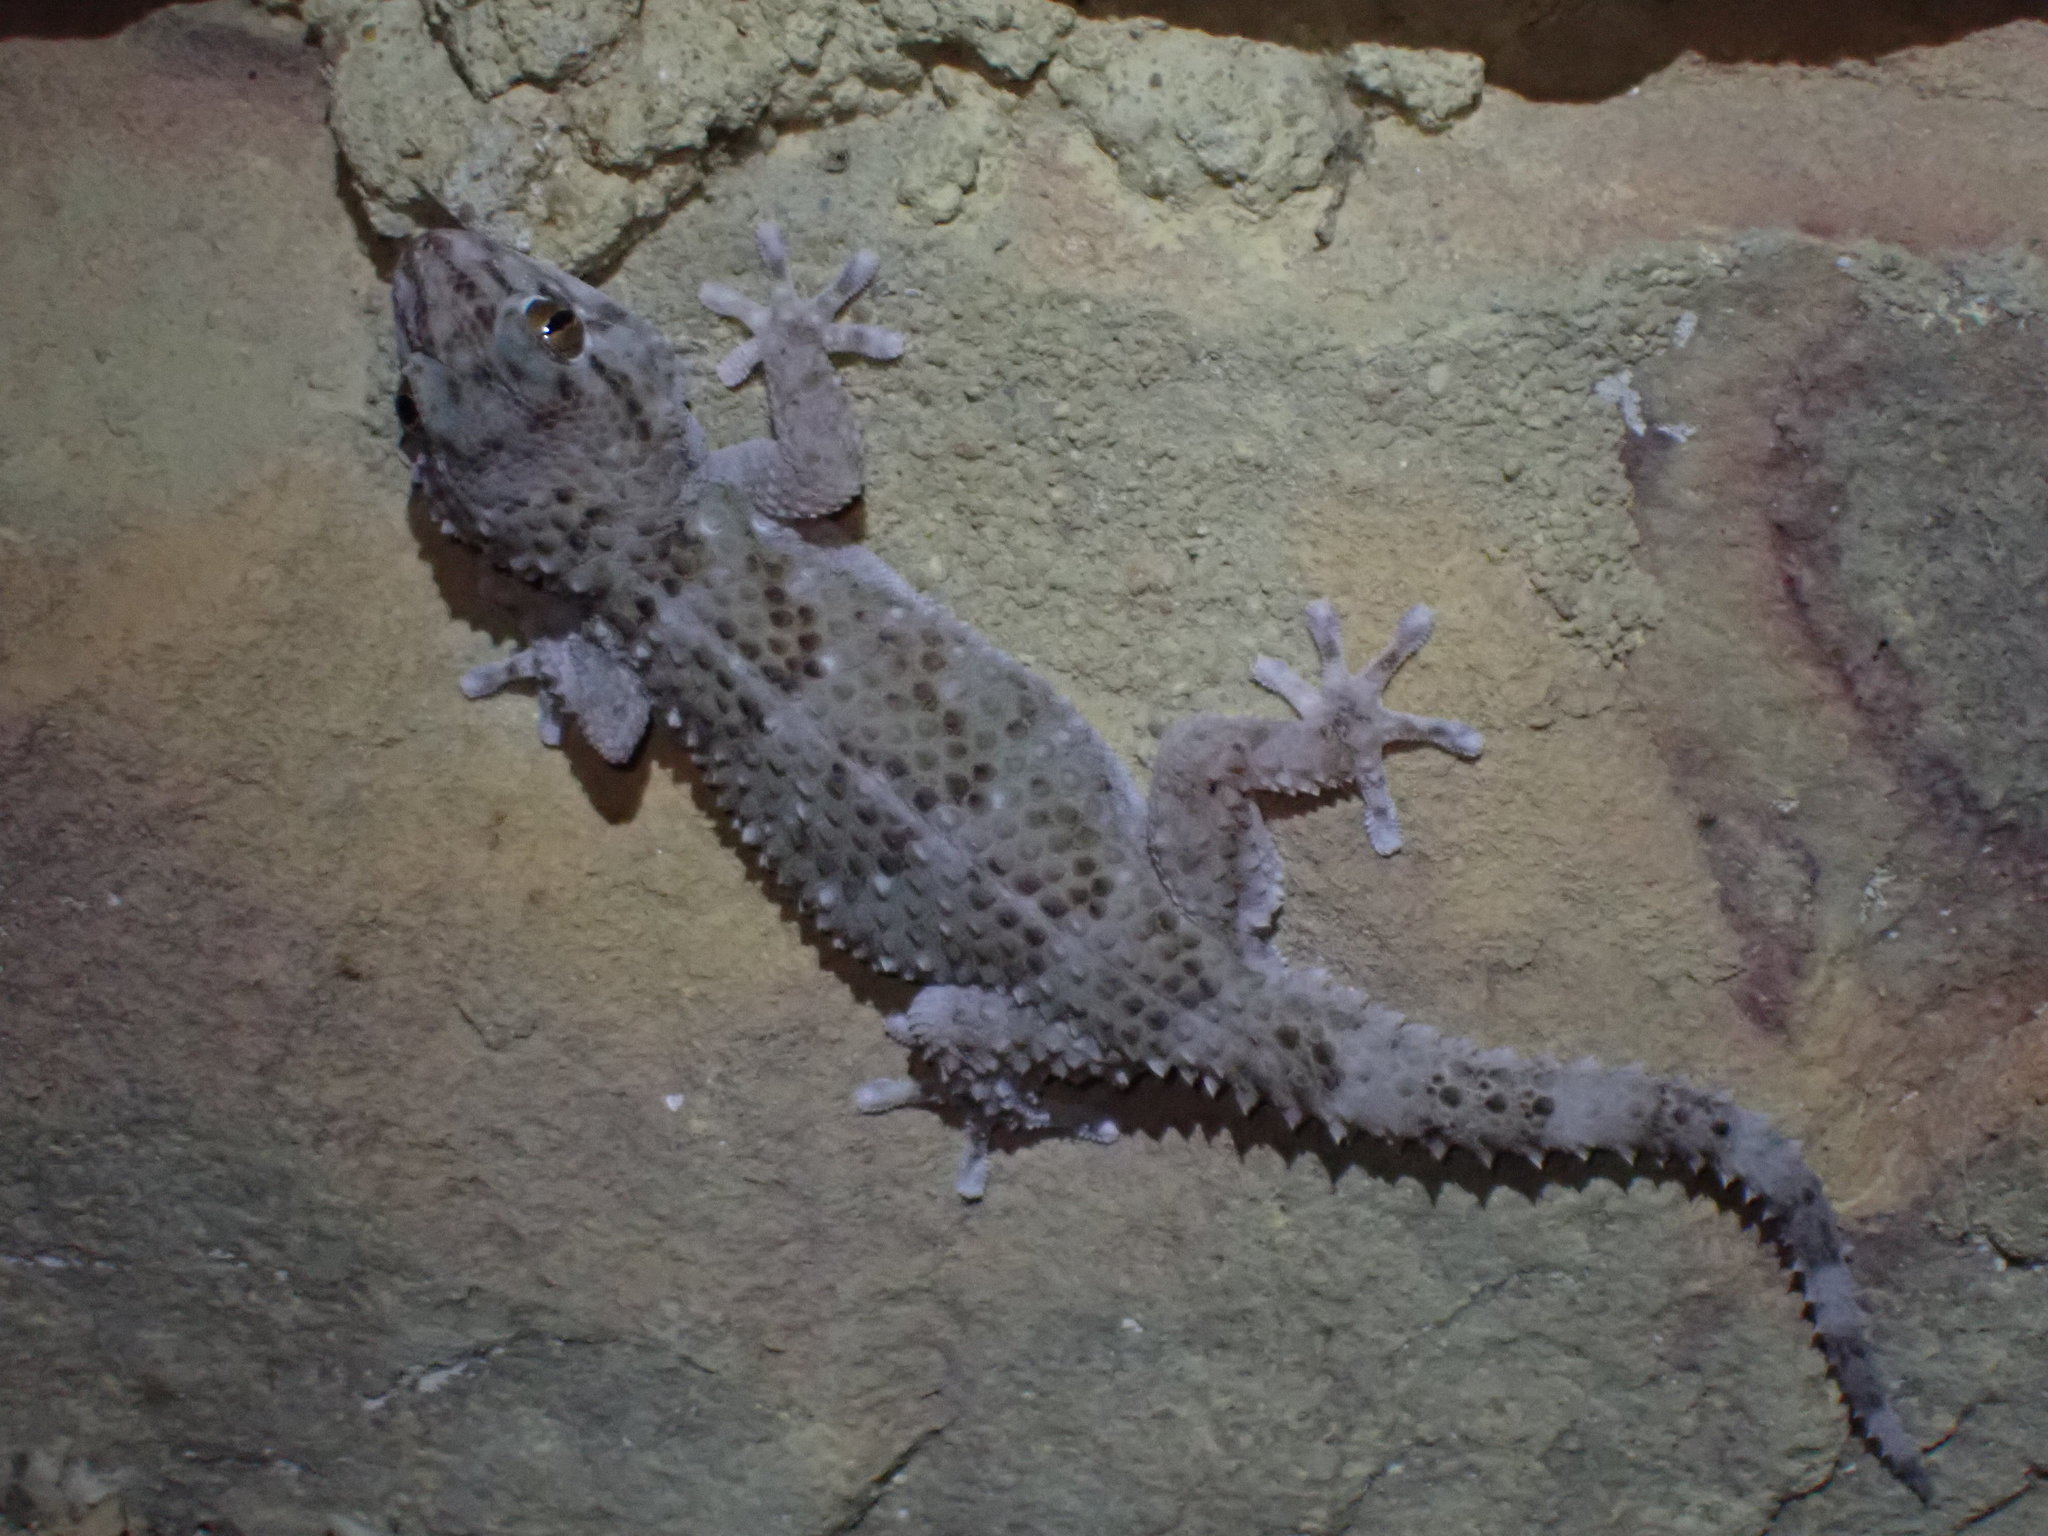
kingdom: Animalia
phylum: Chordata
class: Squamata
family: Gekkonidae
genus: Chondrodactylus
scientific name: Chondrodactylus bibronii
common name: Bibron's gecko
